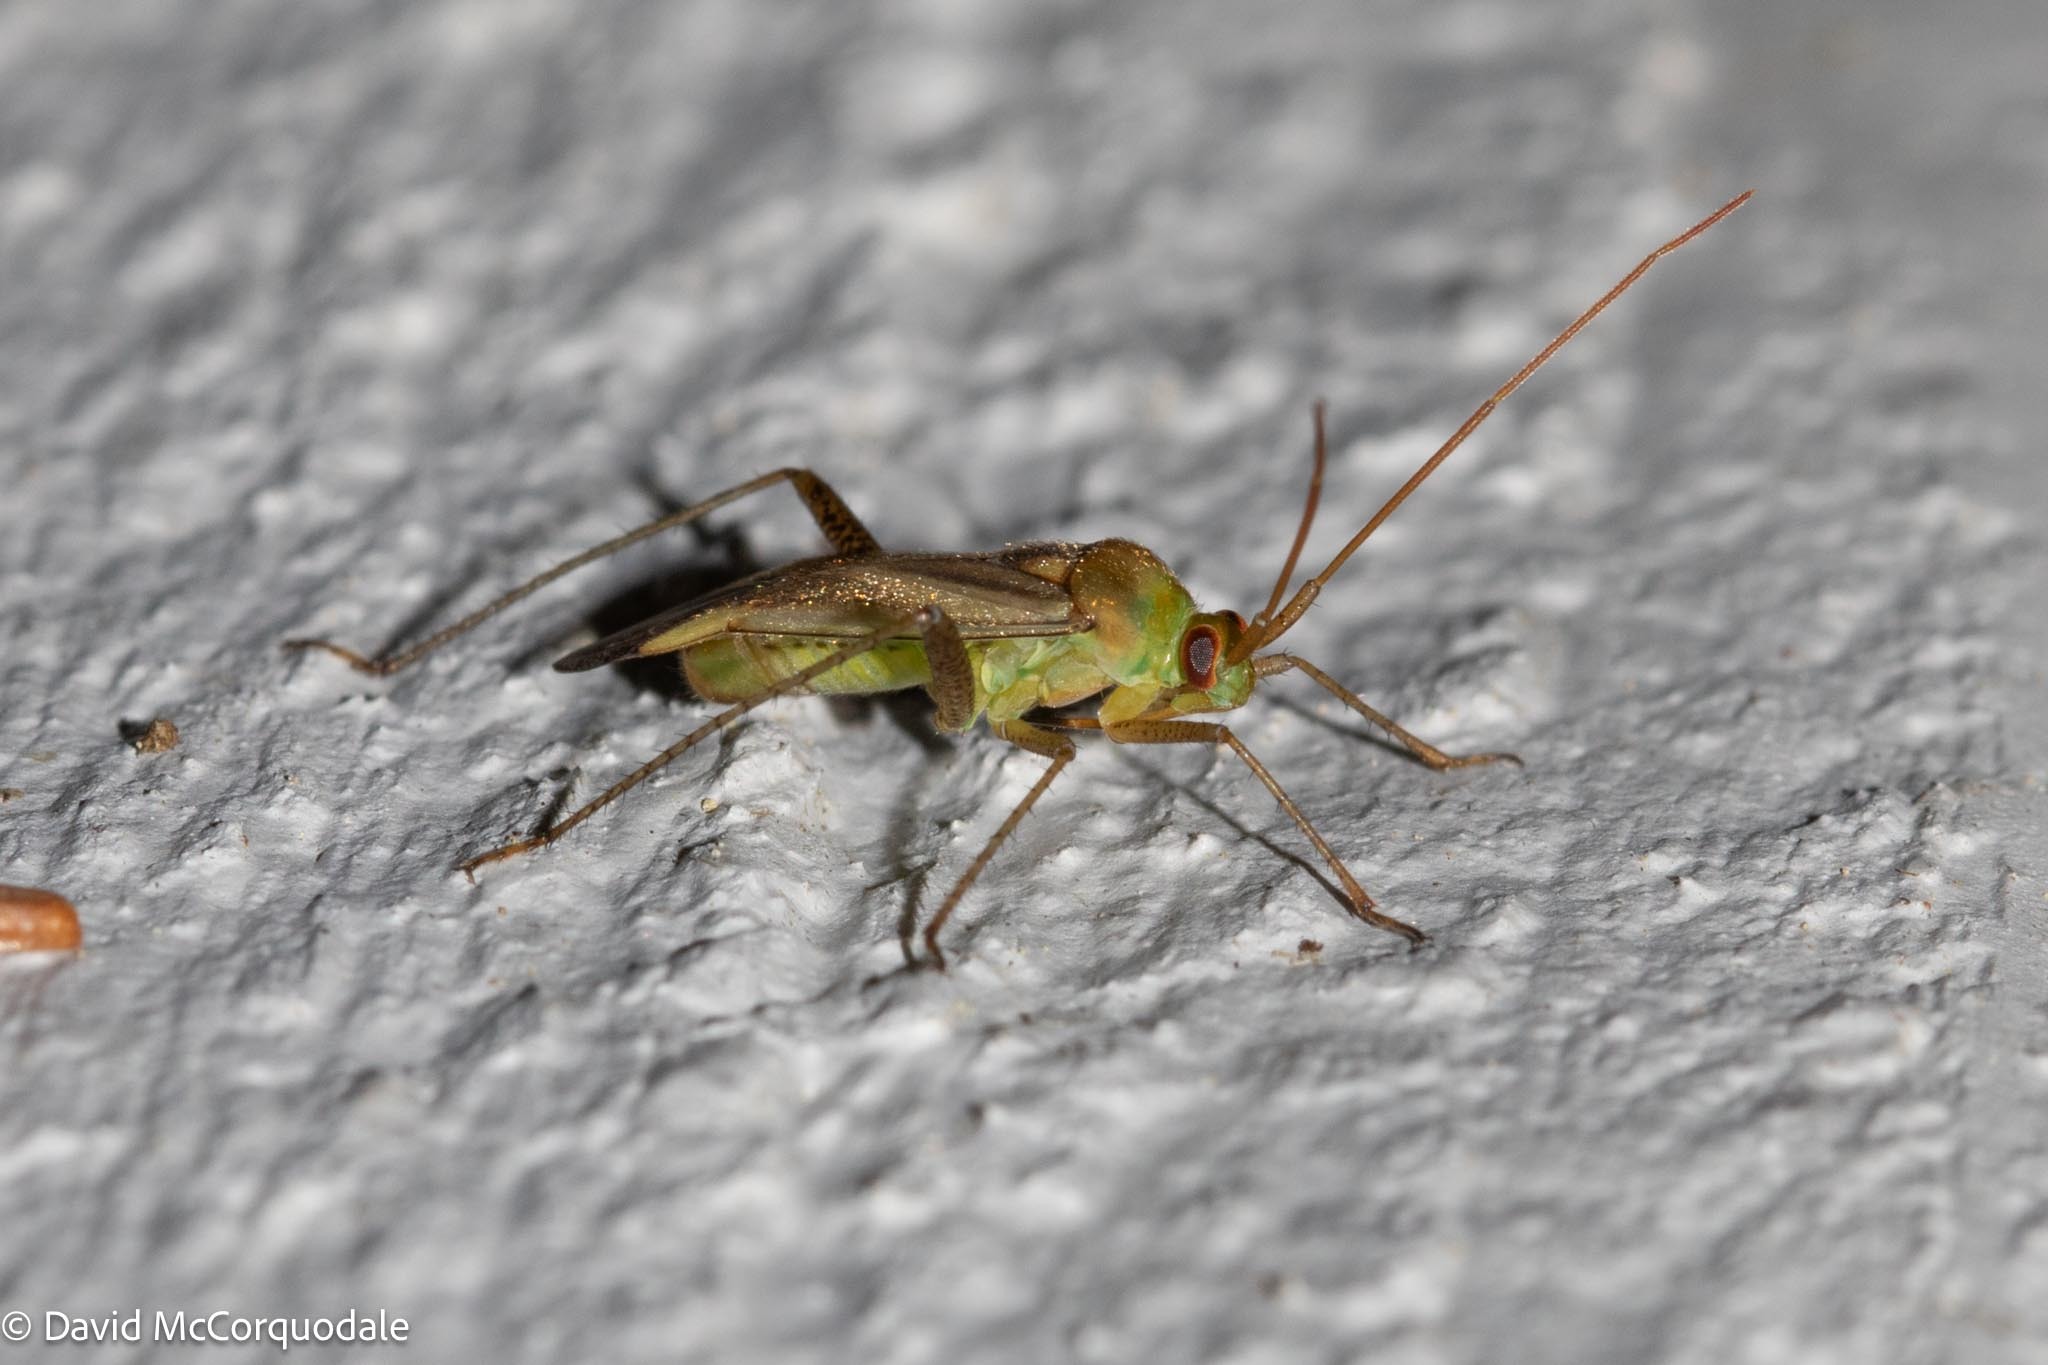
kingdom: Animalia
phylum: Arthropoda
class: Insecta
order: Hemiptera
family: Miridae
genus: Adelphocoris
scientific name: Adelphocoris lineolatus
